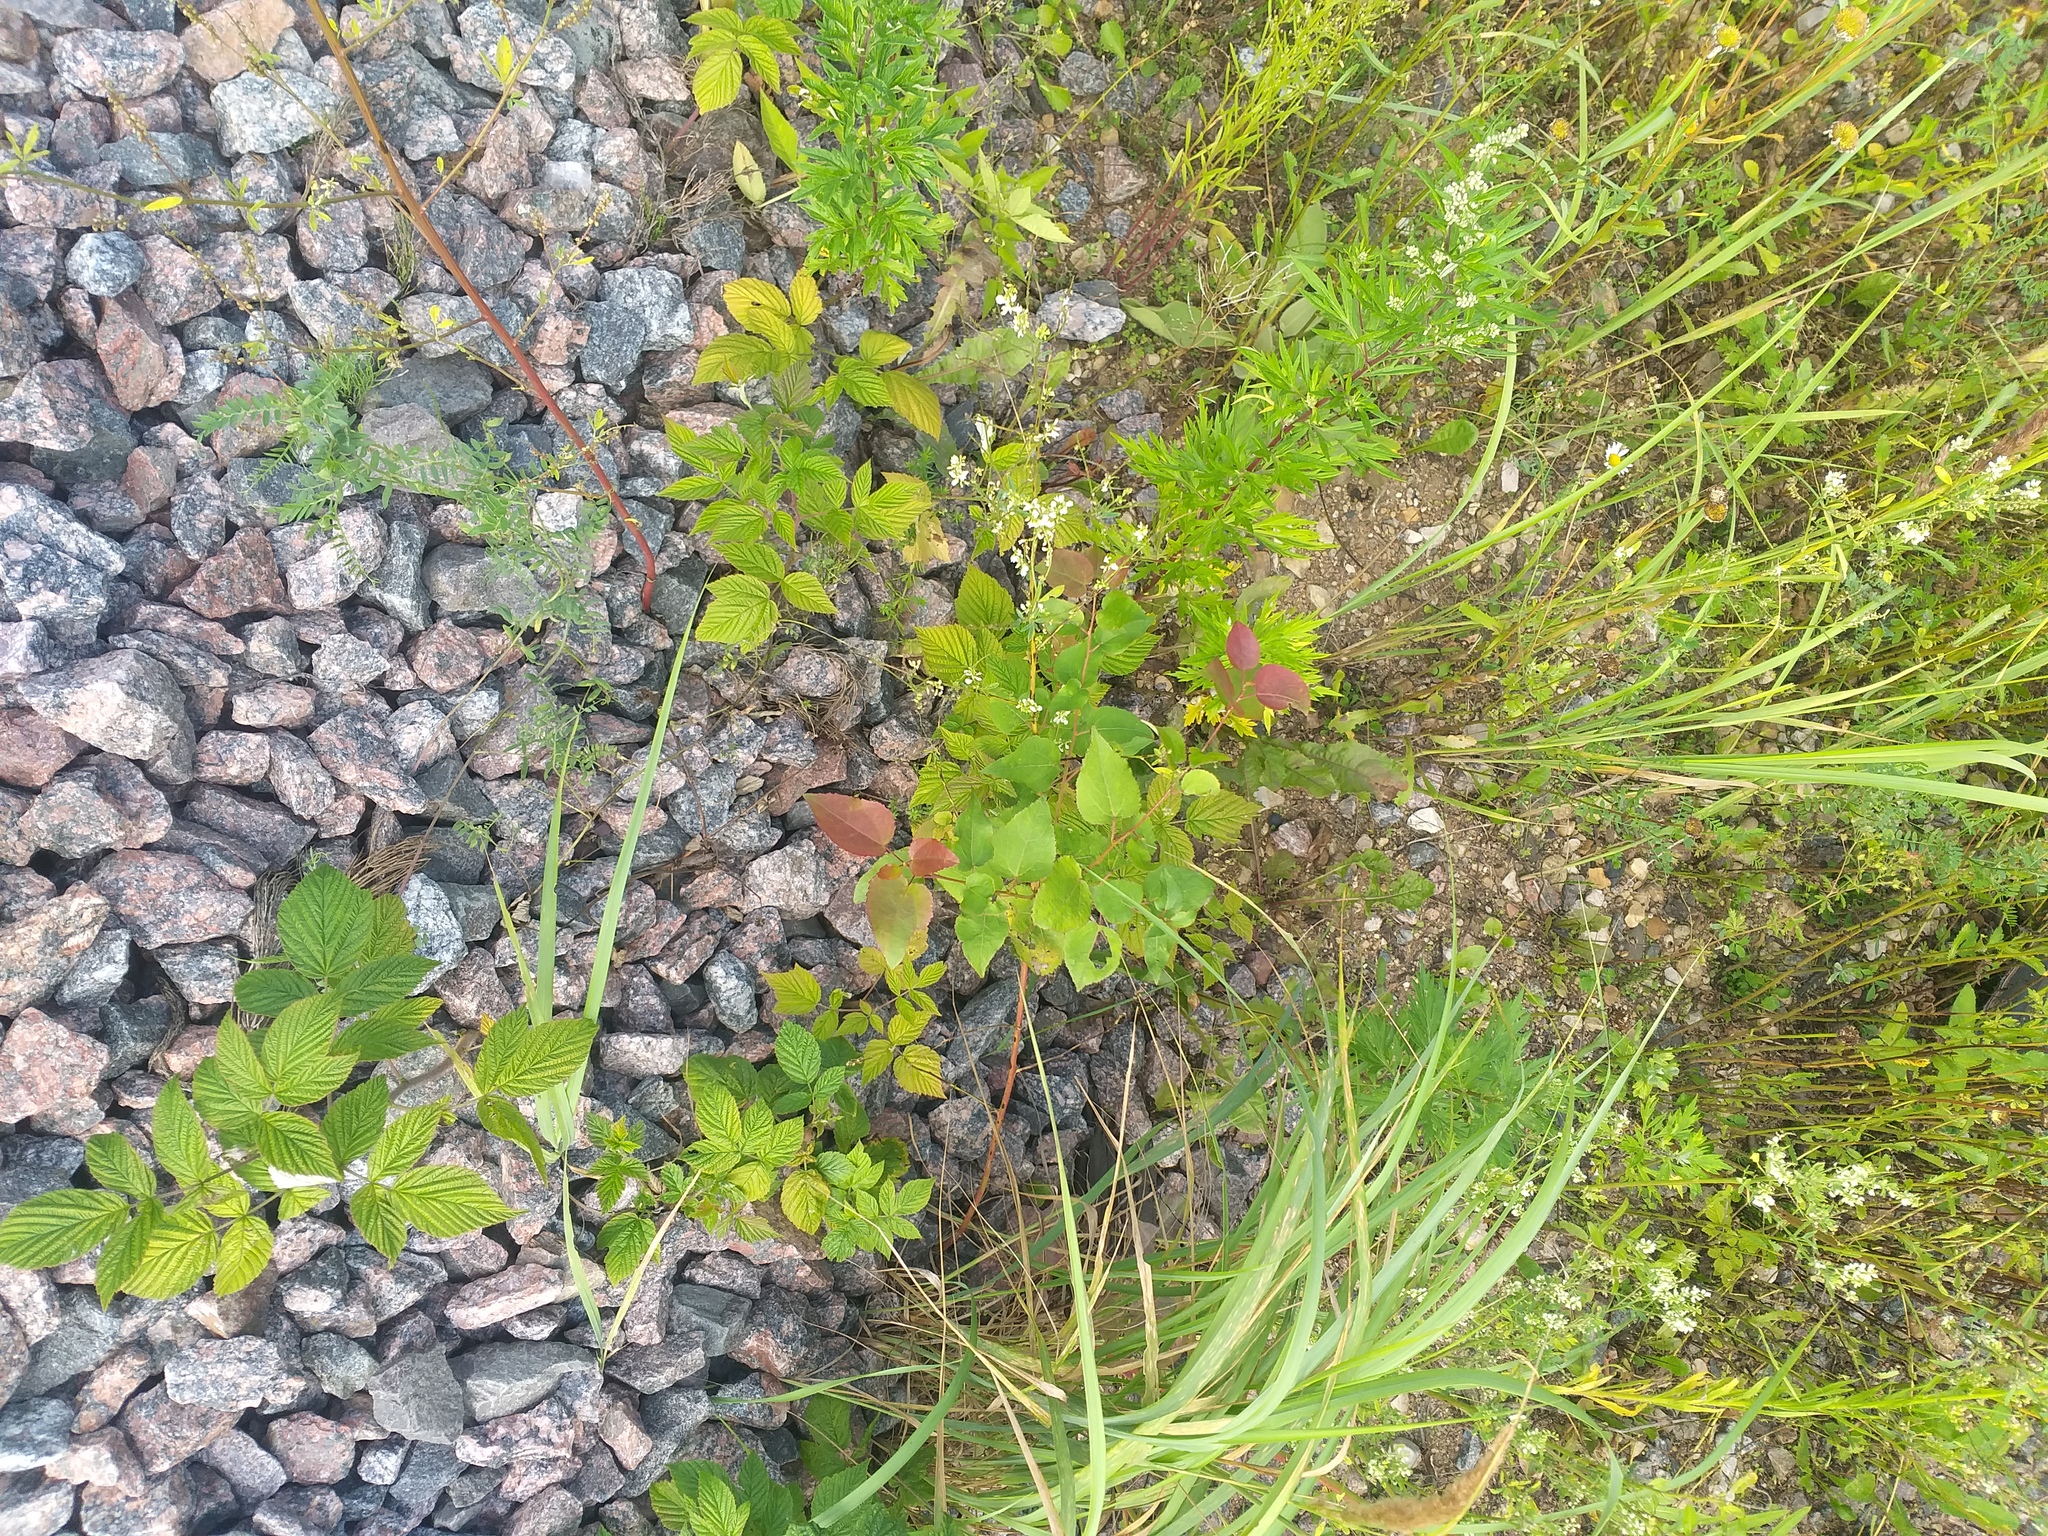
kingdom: Plantae
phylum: Tracheophyta
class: Magnoliopsida
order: Malpighiales
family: Salicaceae
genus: Populus
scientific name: Populus tremula
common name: European aspen
